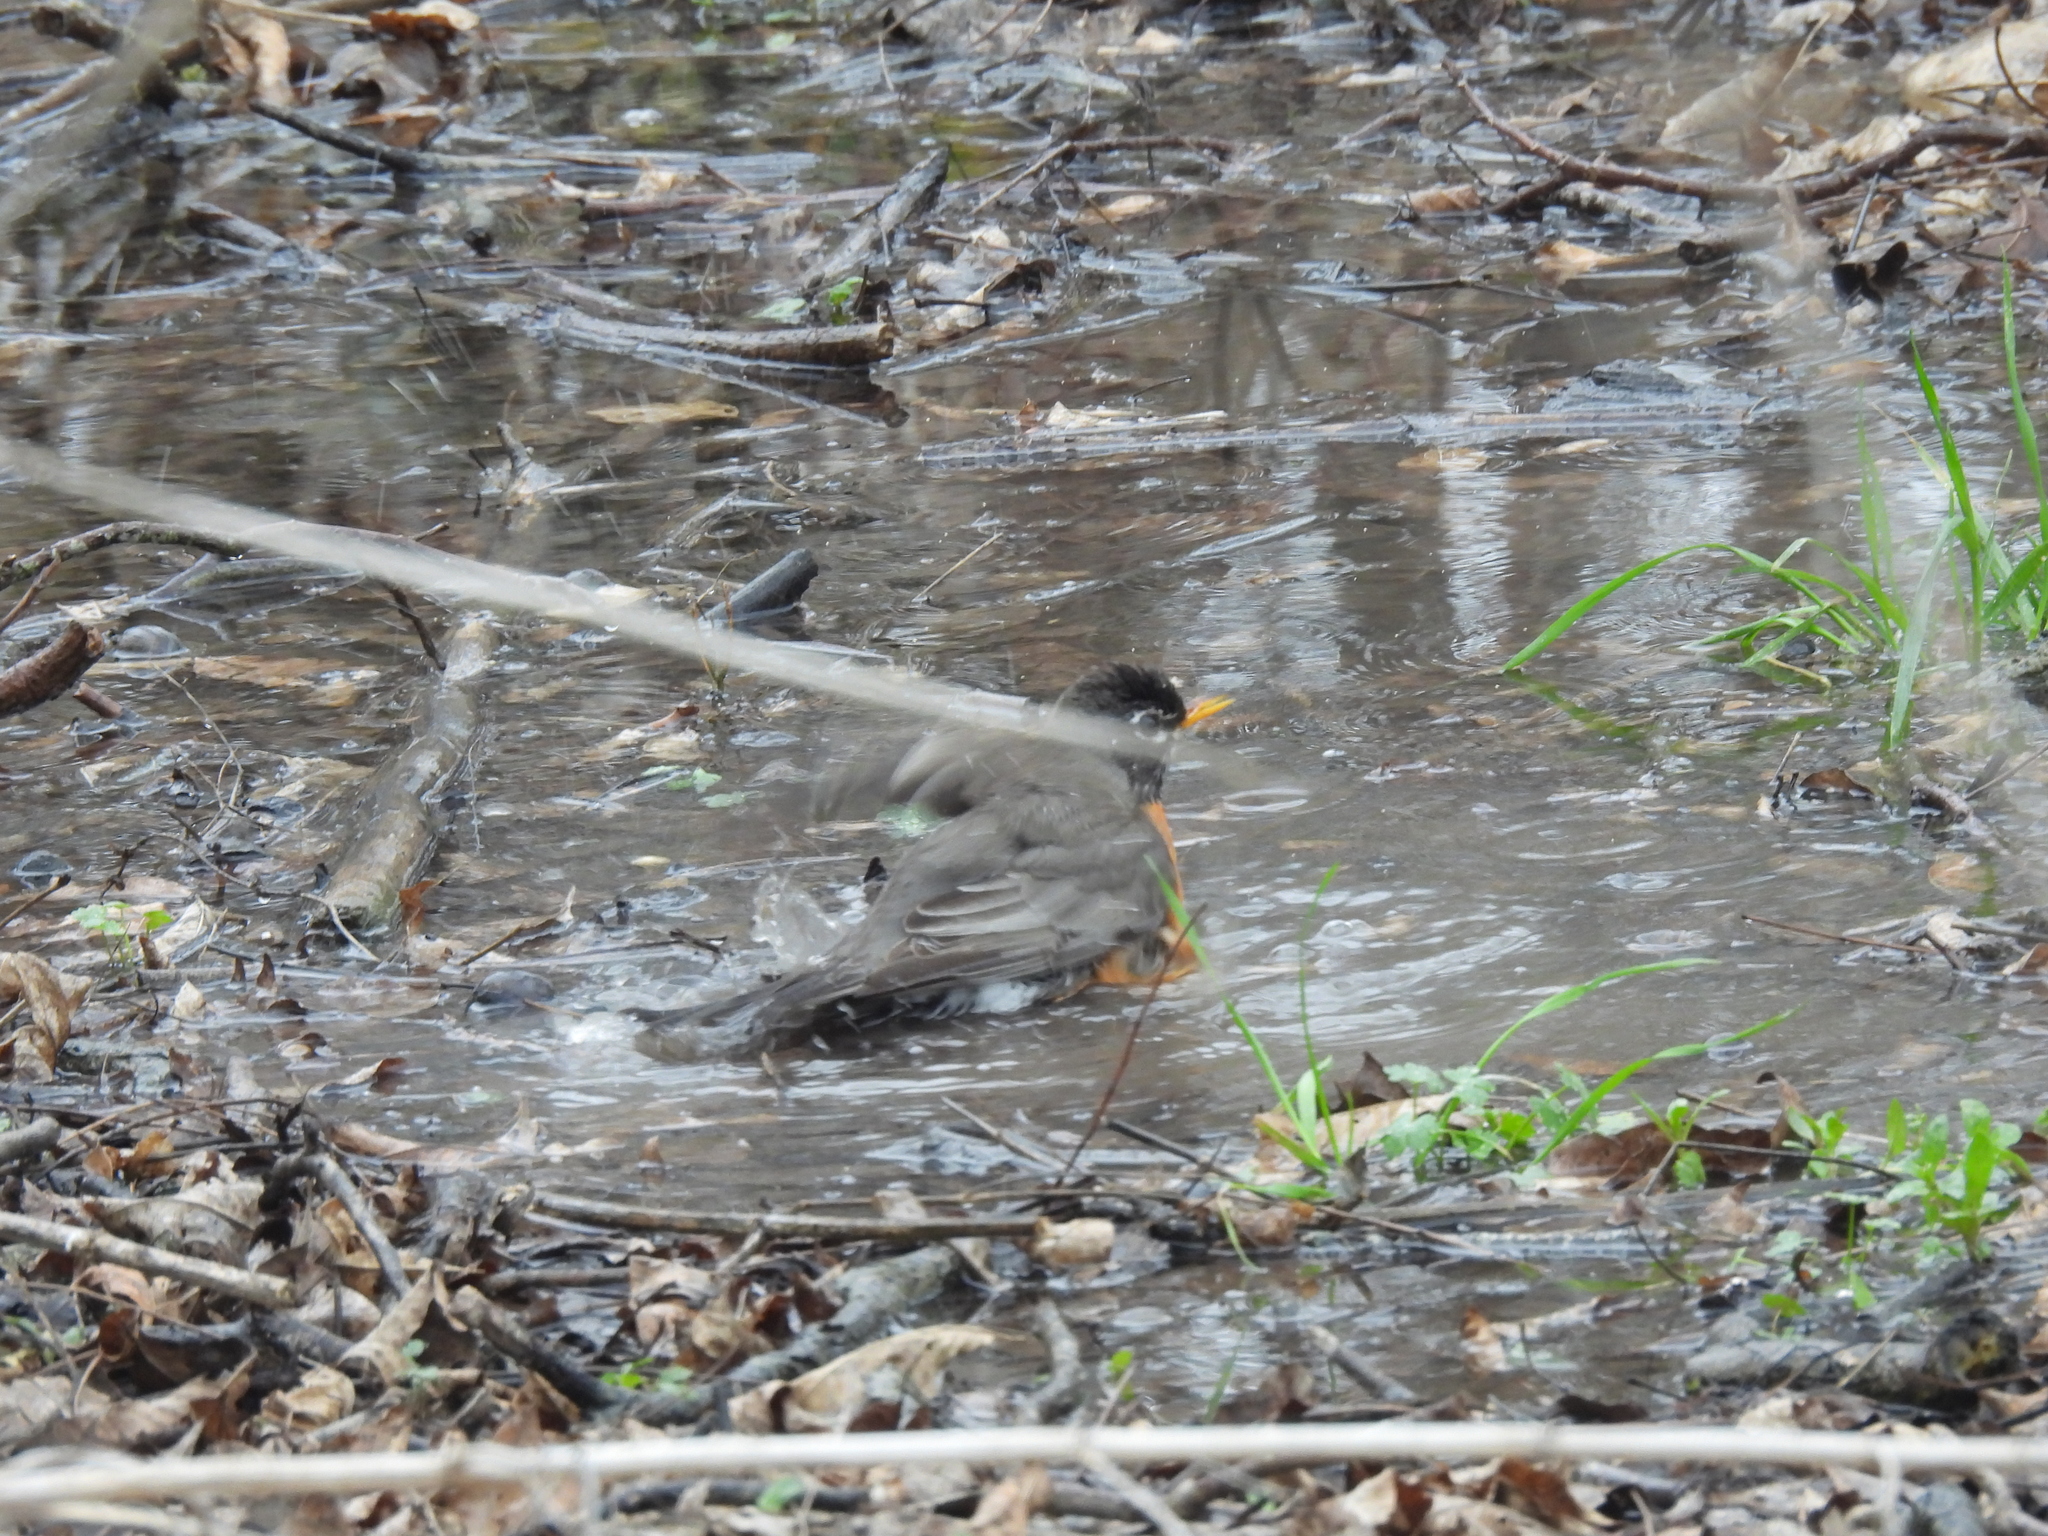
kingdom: Animalia
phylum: Chordata
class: Aves
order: Passeriformes
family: Turdidae
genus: Turdus
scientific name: Turdus migratorius
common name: American robin
